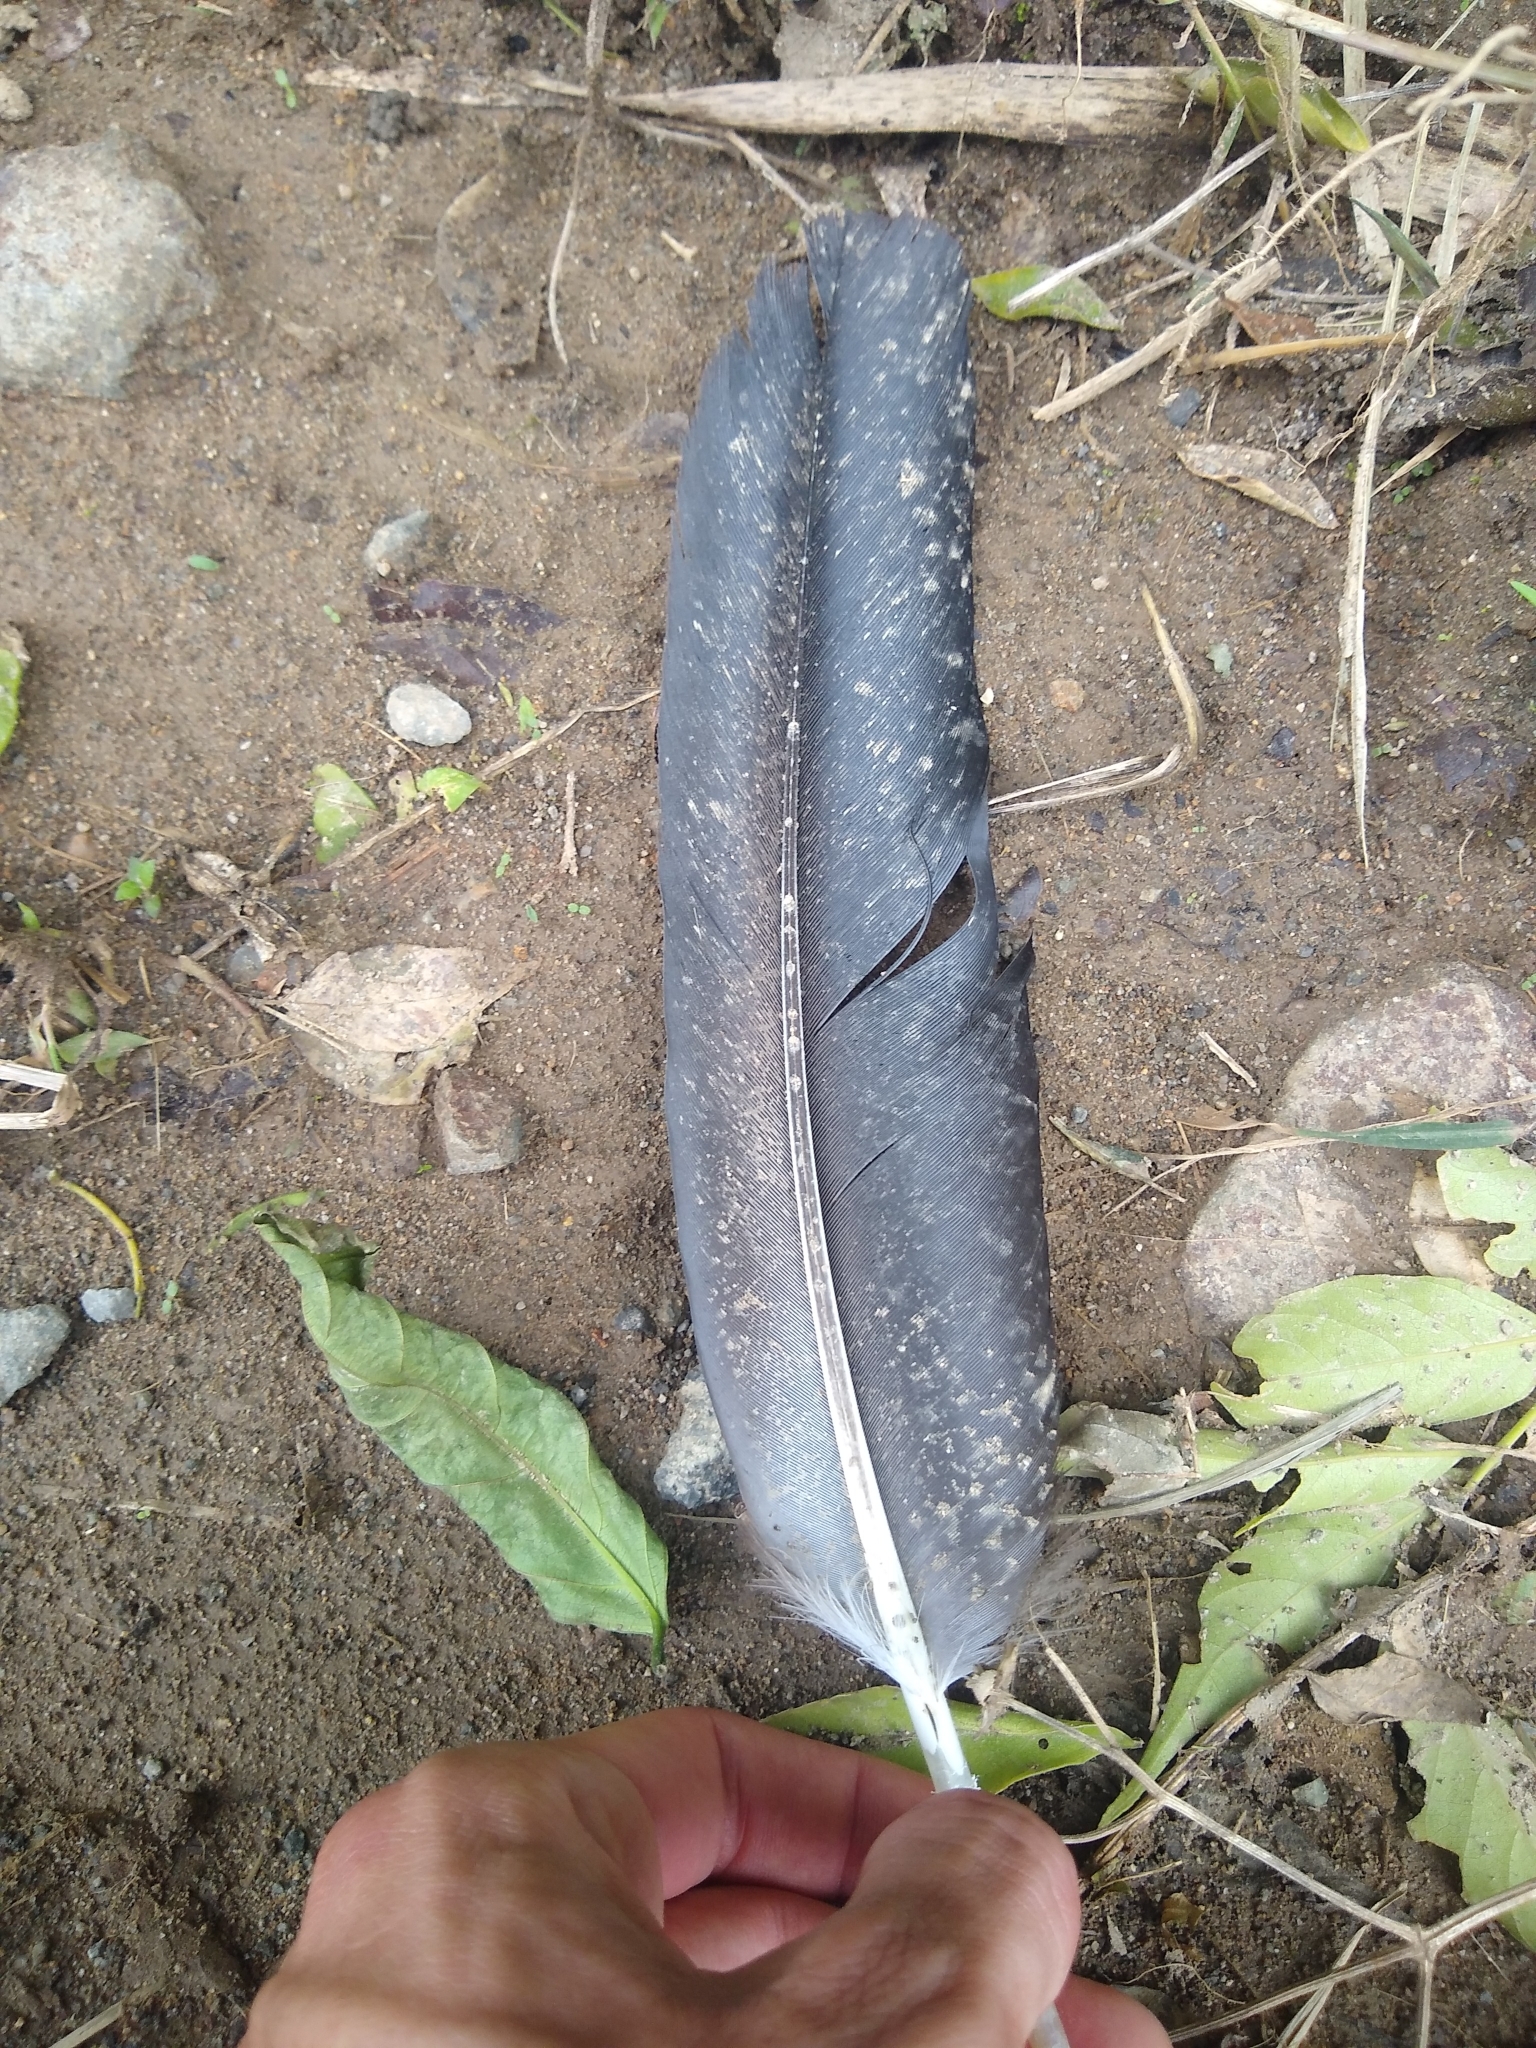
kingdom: Animalia
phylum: Chordata
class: Aves
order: Accipitriformes
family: Cathartidae
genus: Coragyps
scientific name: Coragyps atratus
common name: Black vulture
